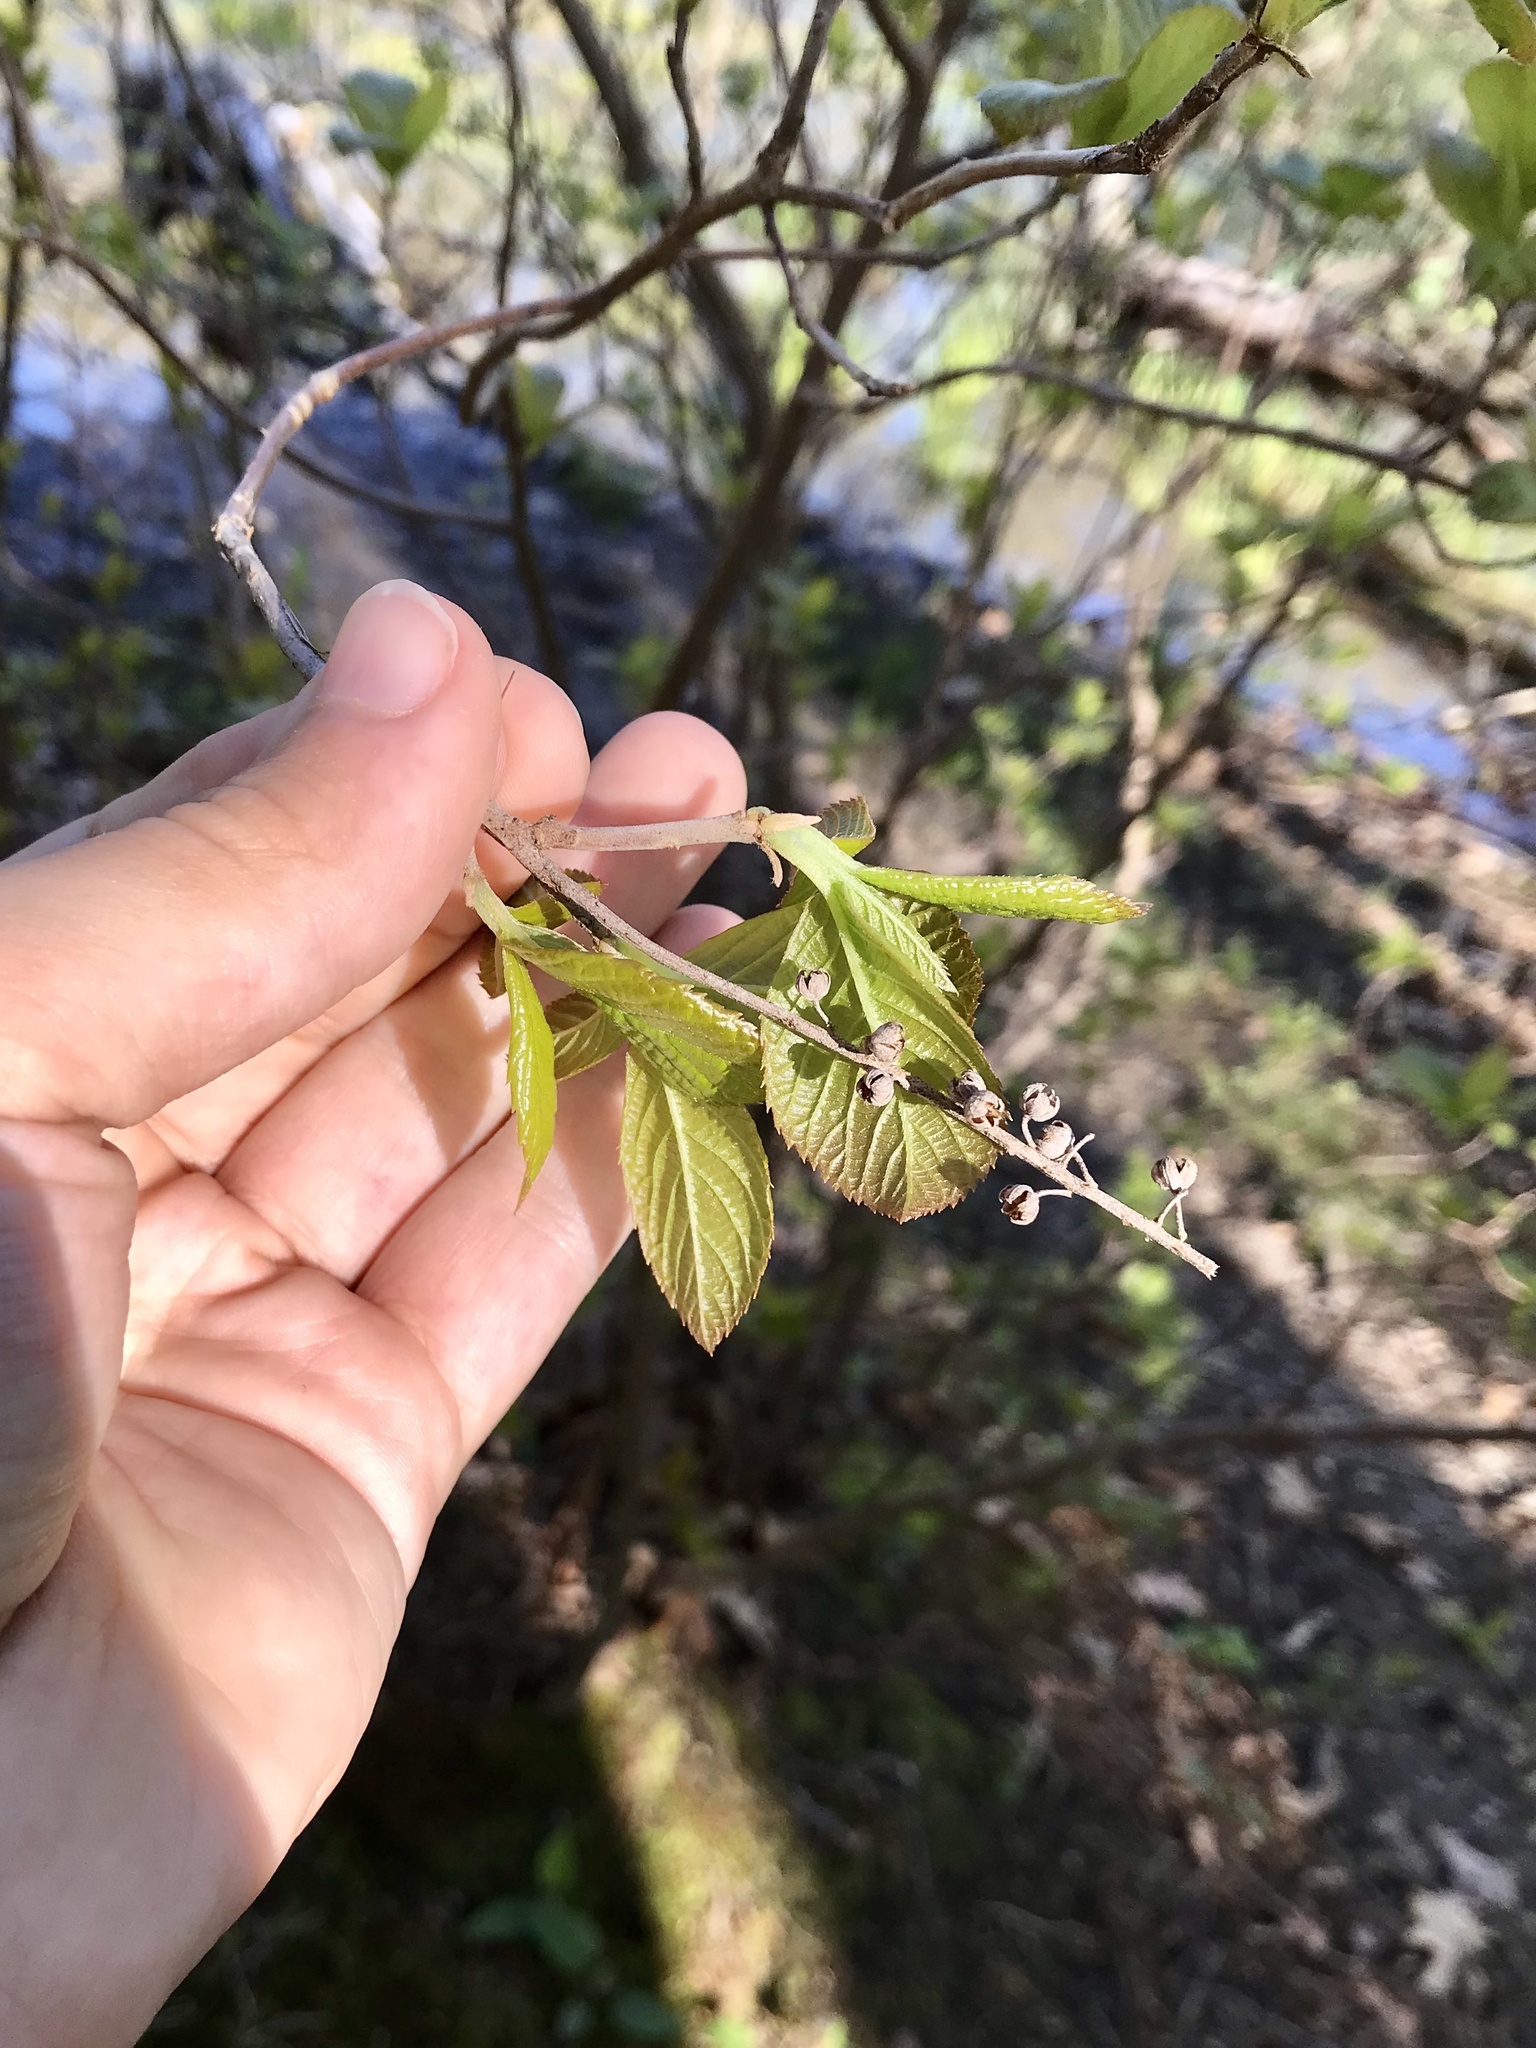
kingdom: Plantae
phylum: Tracheophyta
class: Magnoliopsida
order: Ericales
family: Clethraceae
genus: Clethra
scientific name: Clethra alnifolia
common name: Sweet pepperbush
